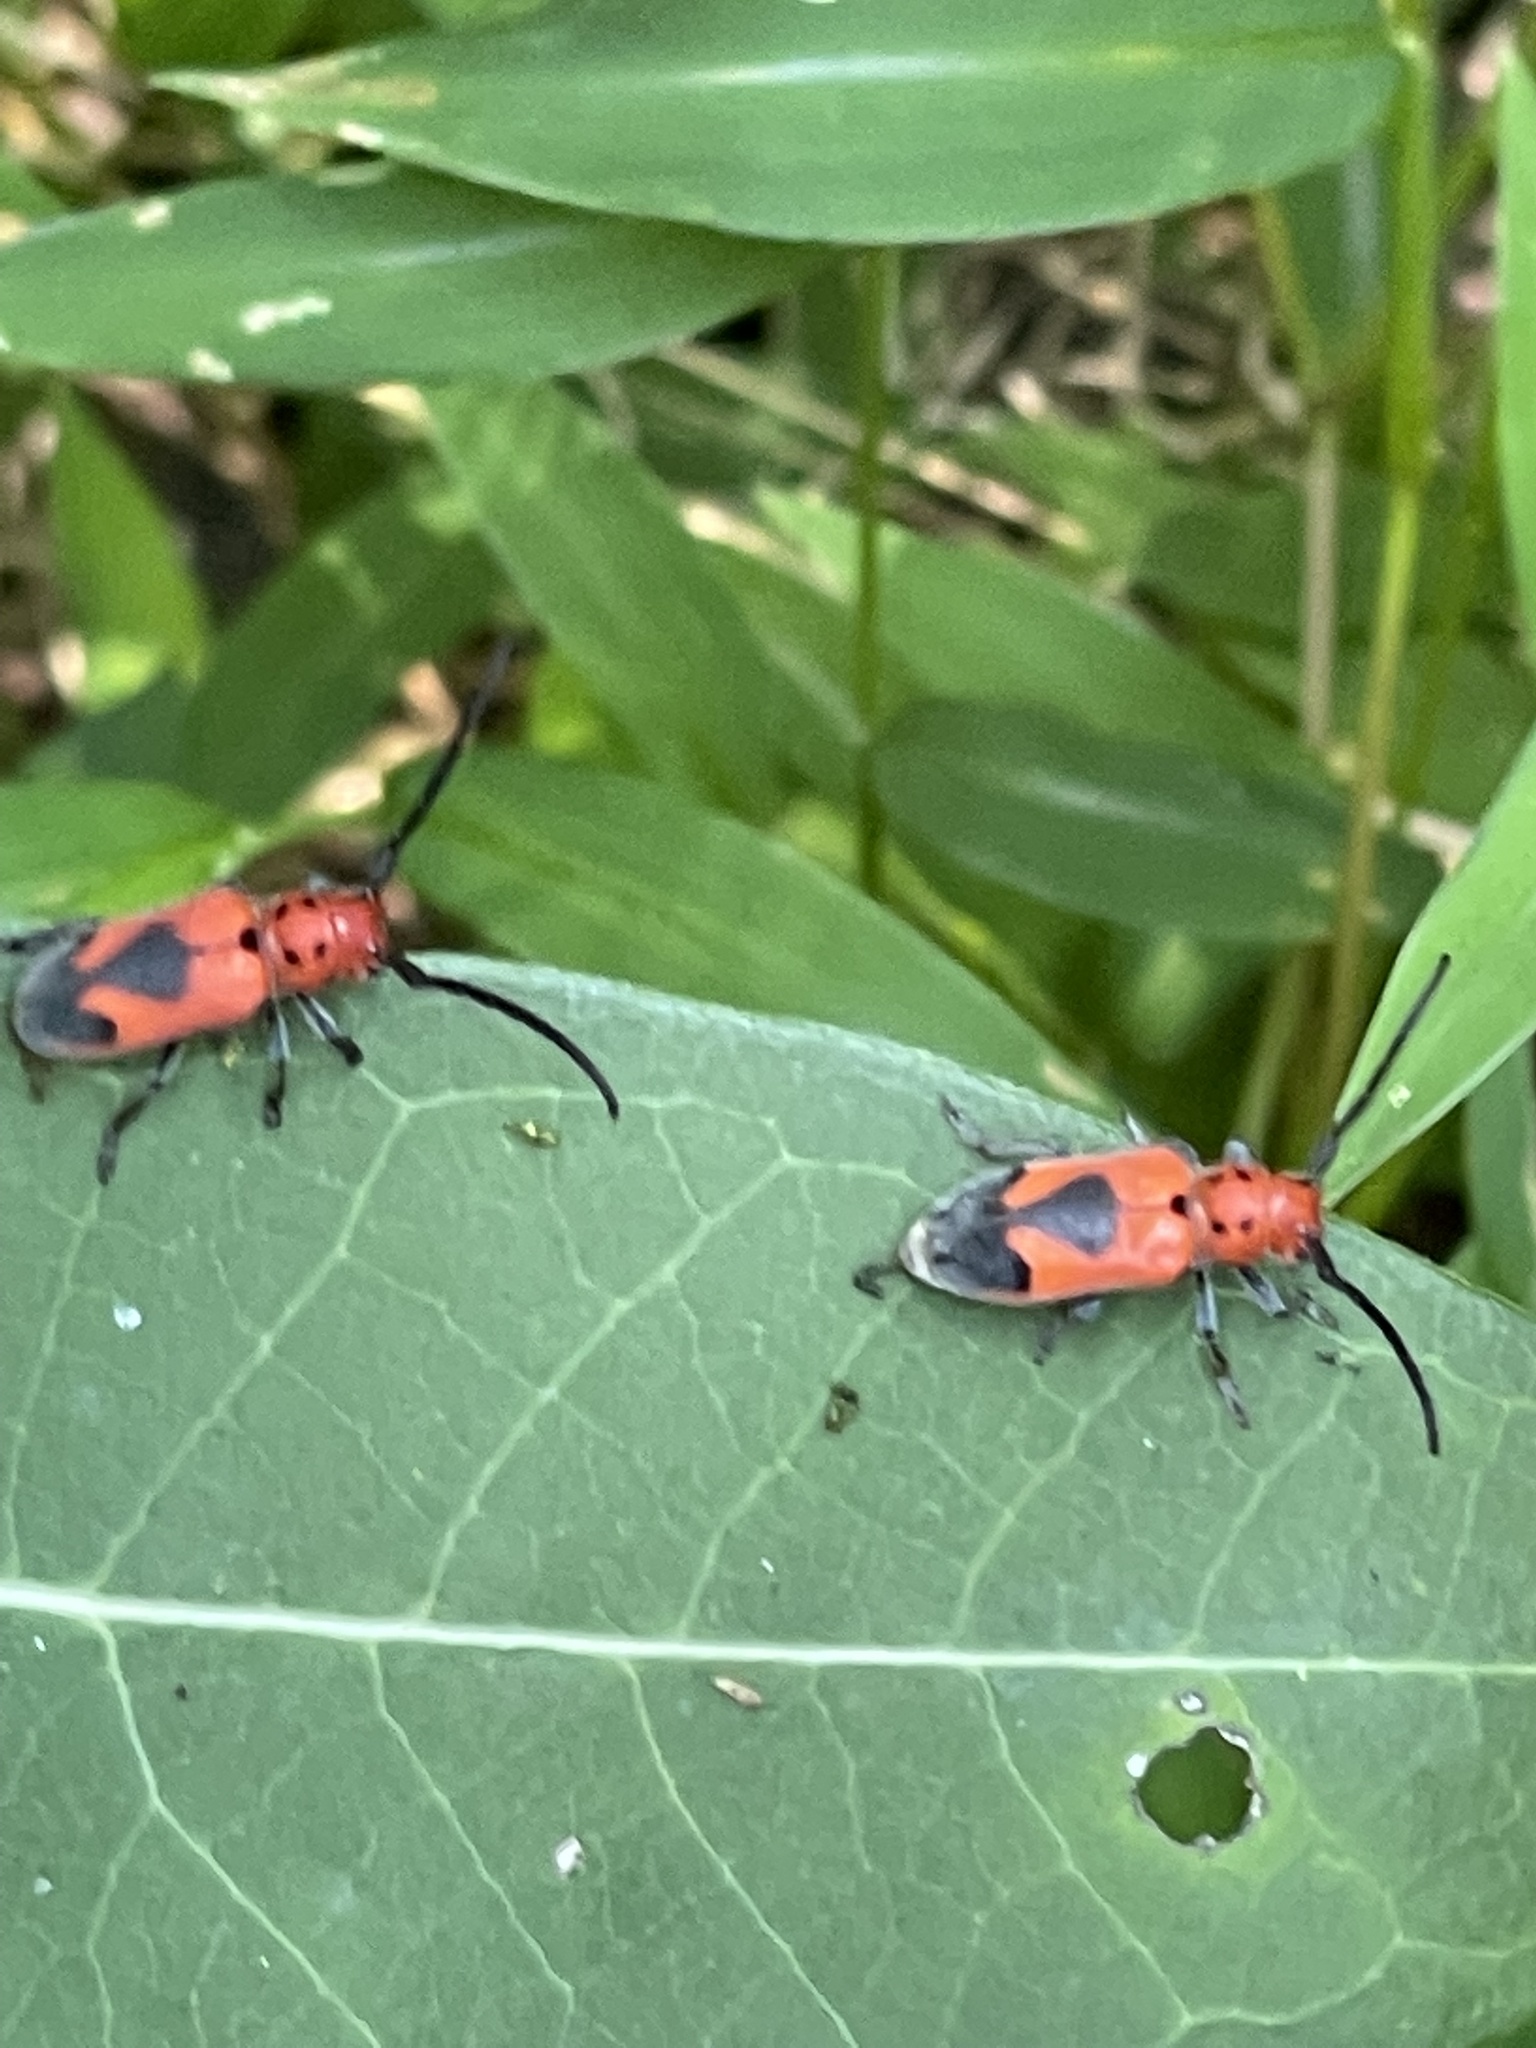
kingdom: Animalia
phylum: Arthropoda
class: Insecta
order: Coleoptera
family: Cerambycidae
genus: Tetraopes
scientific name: Tetraopes melanurus
